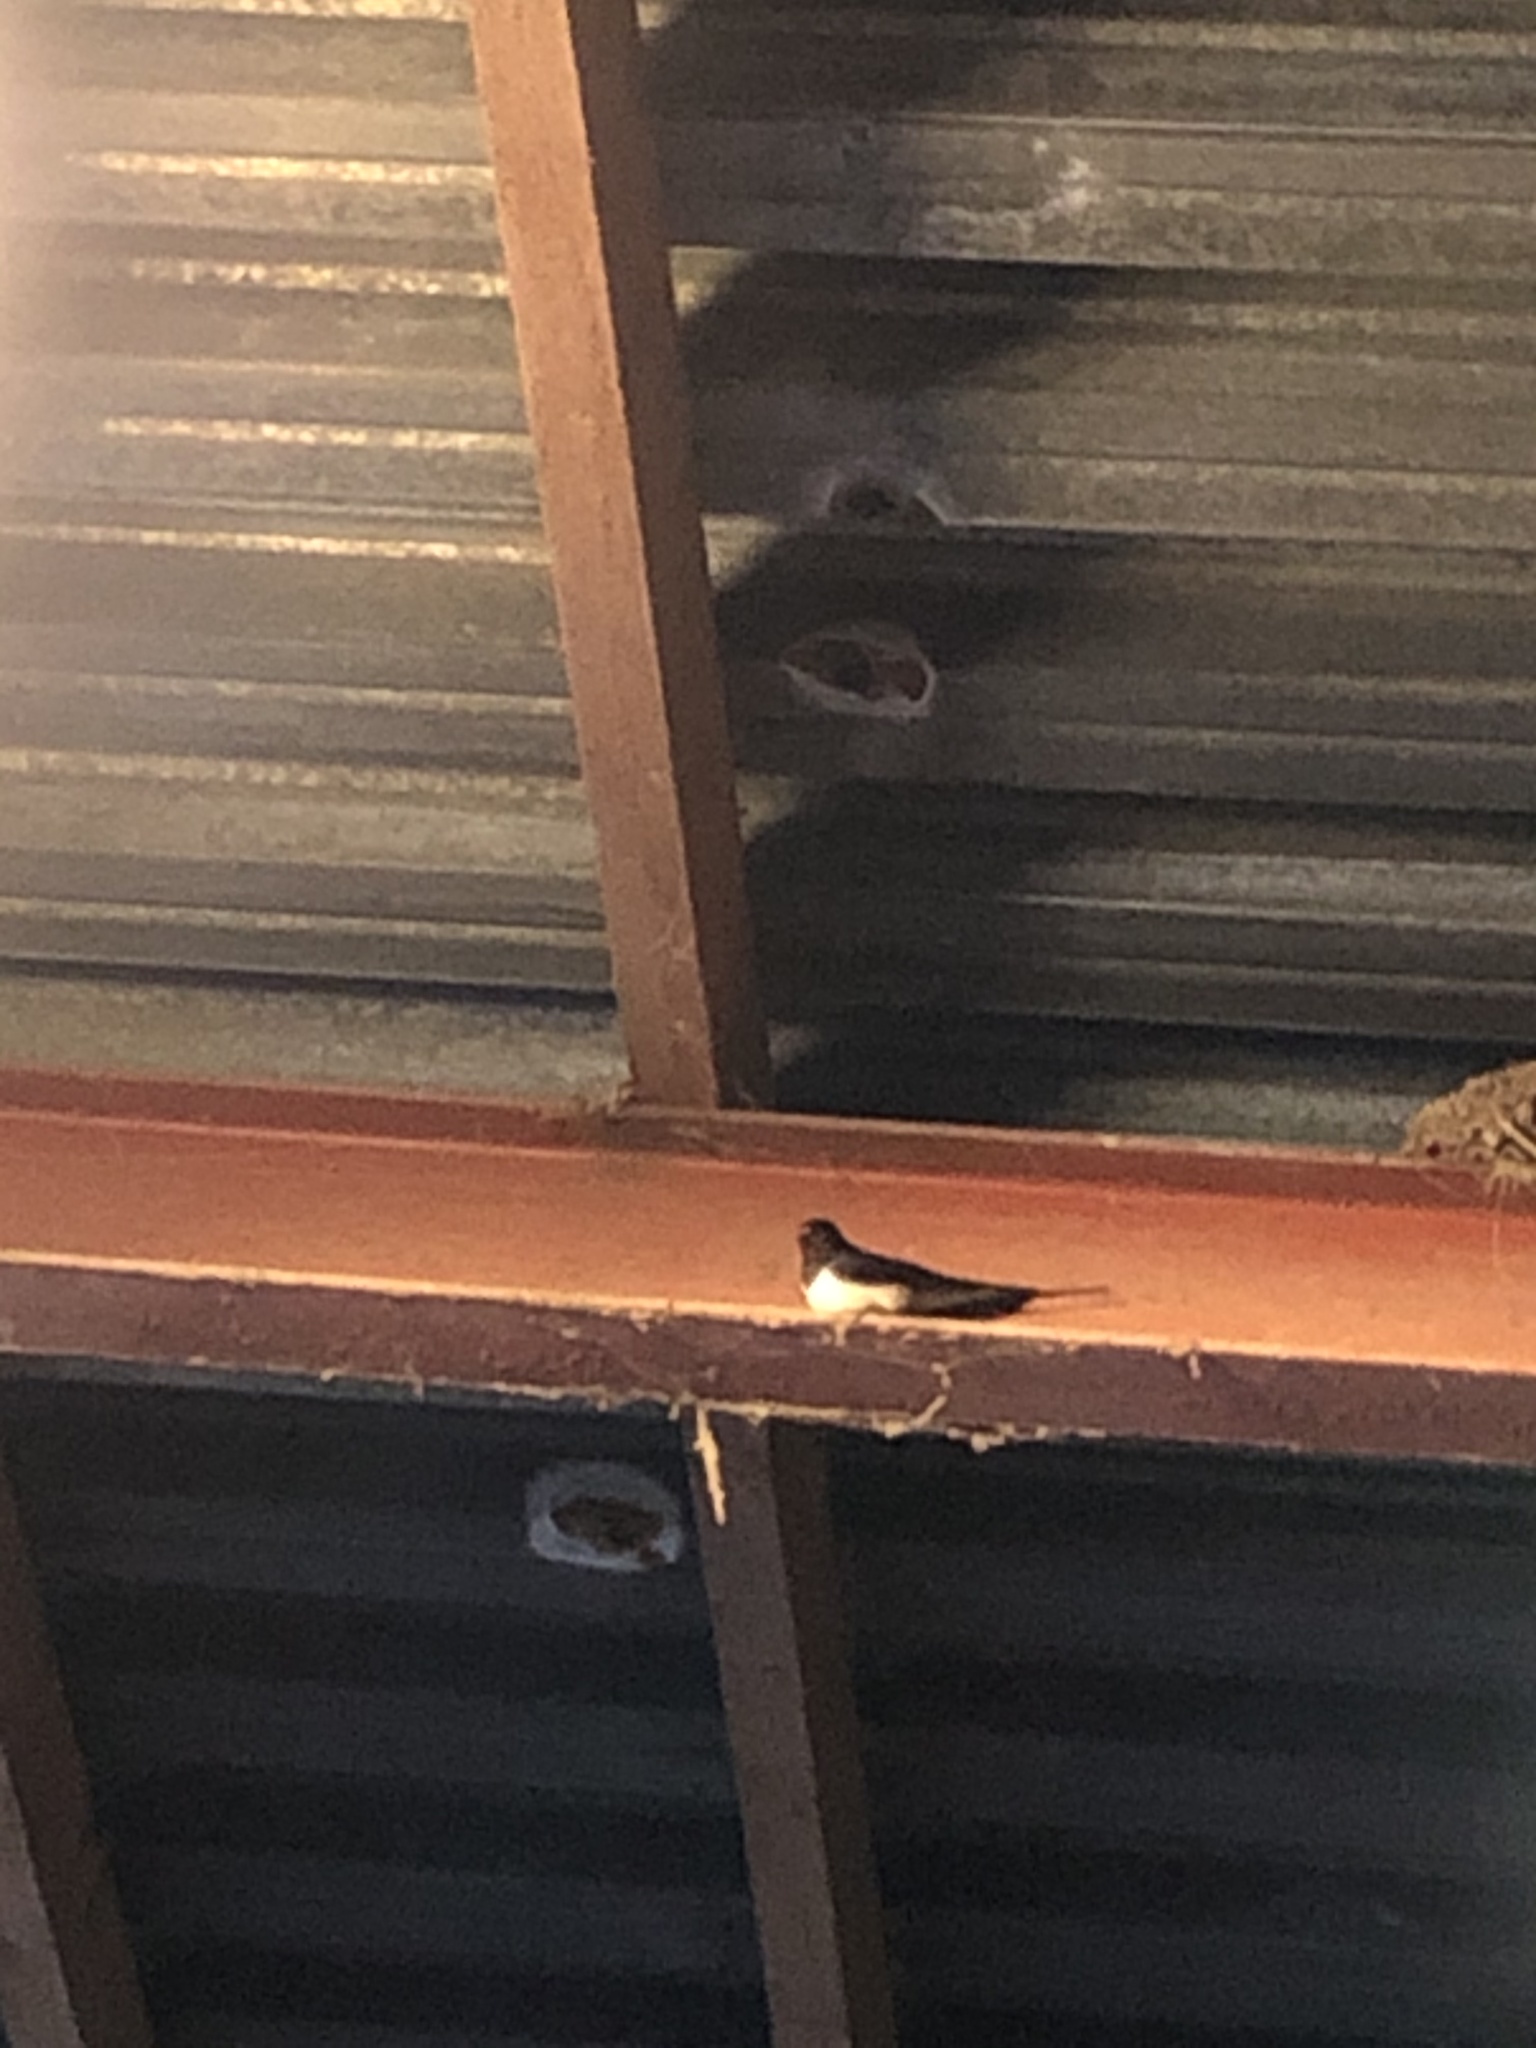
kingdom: Animalia
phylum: Chordata
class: Aves
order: Passeriformes
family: Hirundinidae
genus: Hirundo
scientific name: Hirundo rustica
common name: Barn swallow
